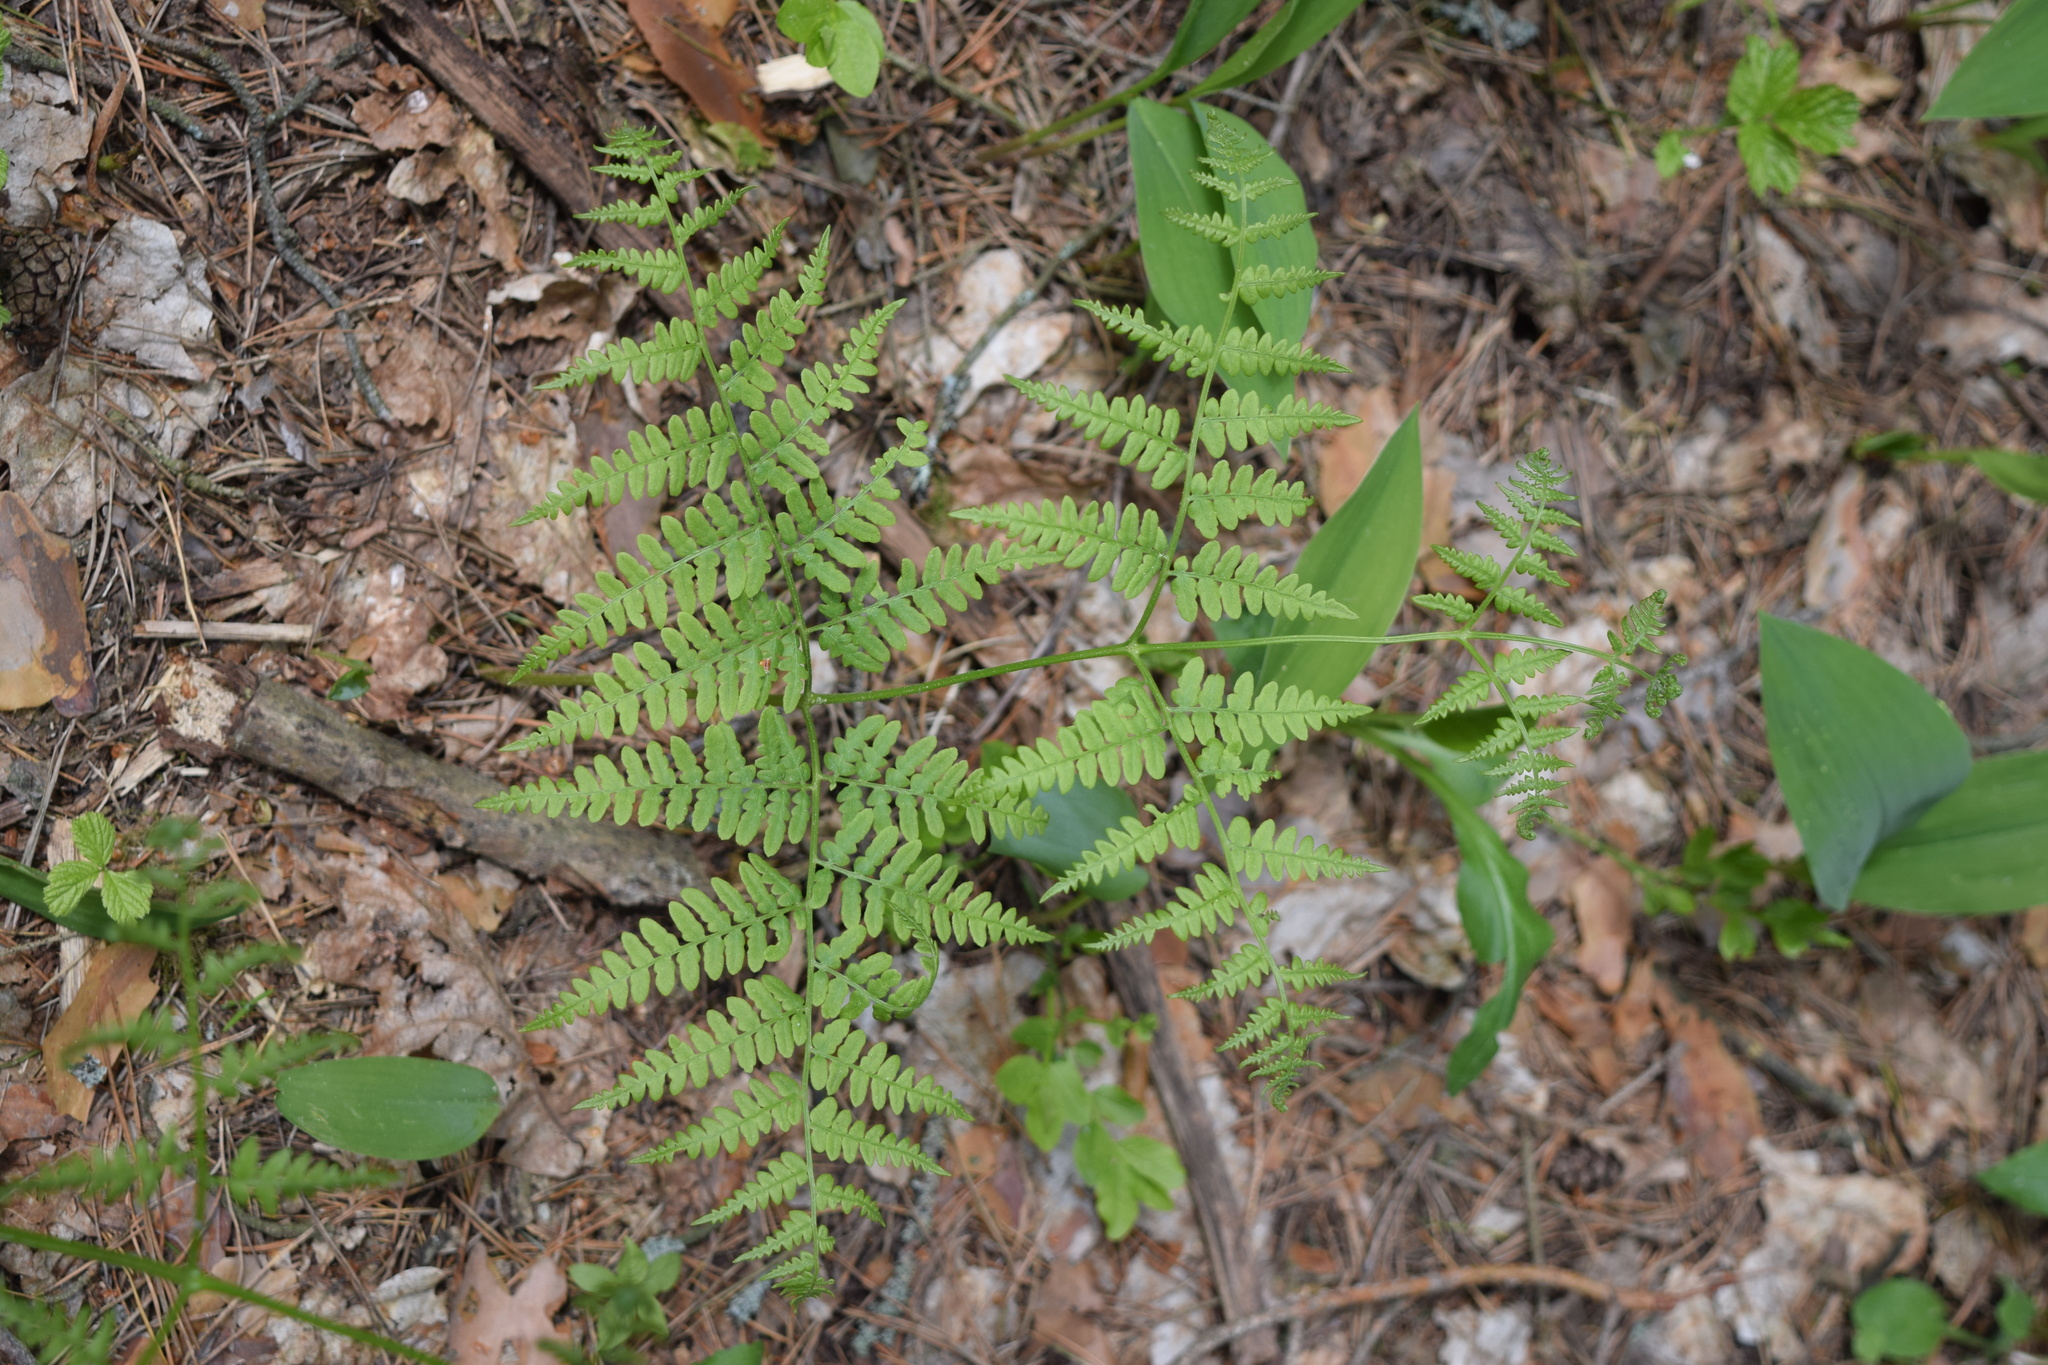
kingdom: Plantae
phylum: Tracheophyta
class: Polypodiopsida
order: Polypodiales
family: Dennstaedtiaceae
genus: Pteridium
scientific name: Pteridium aquilinum
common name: Bracken
